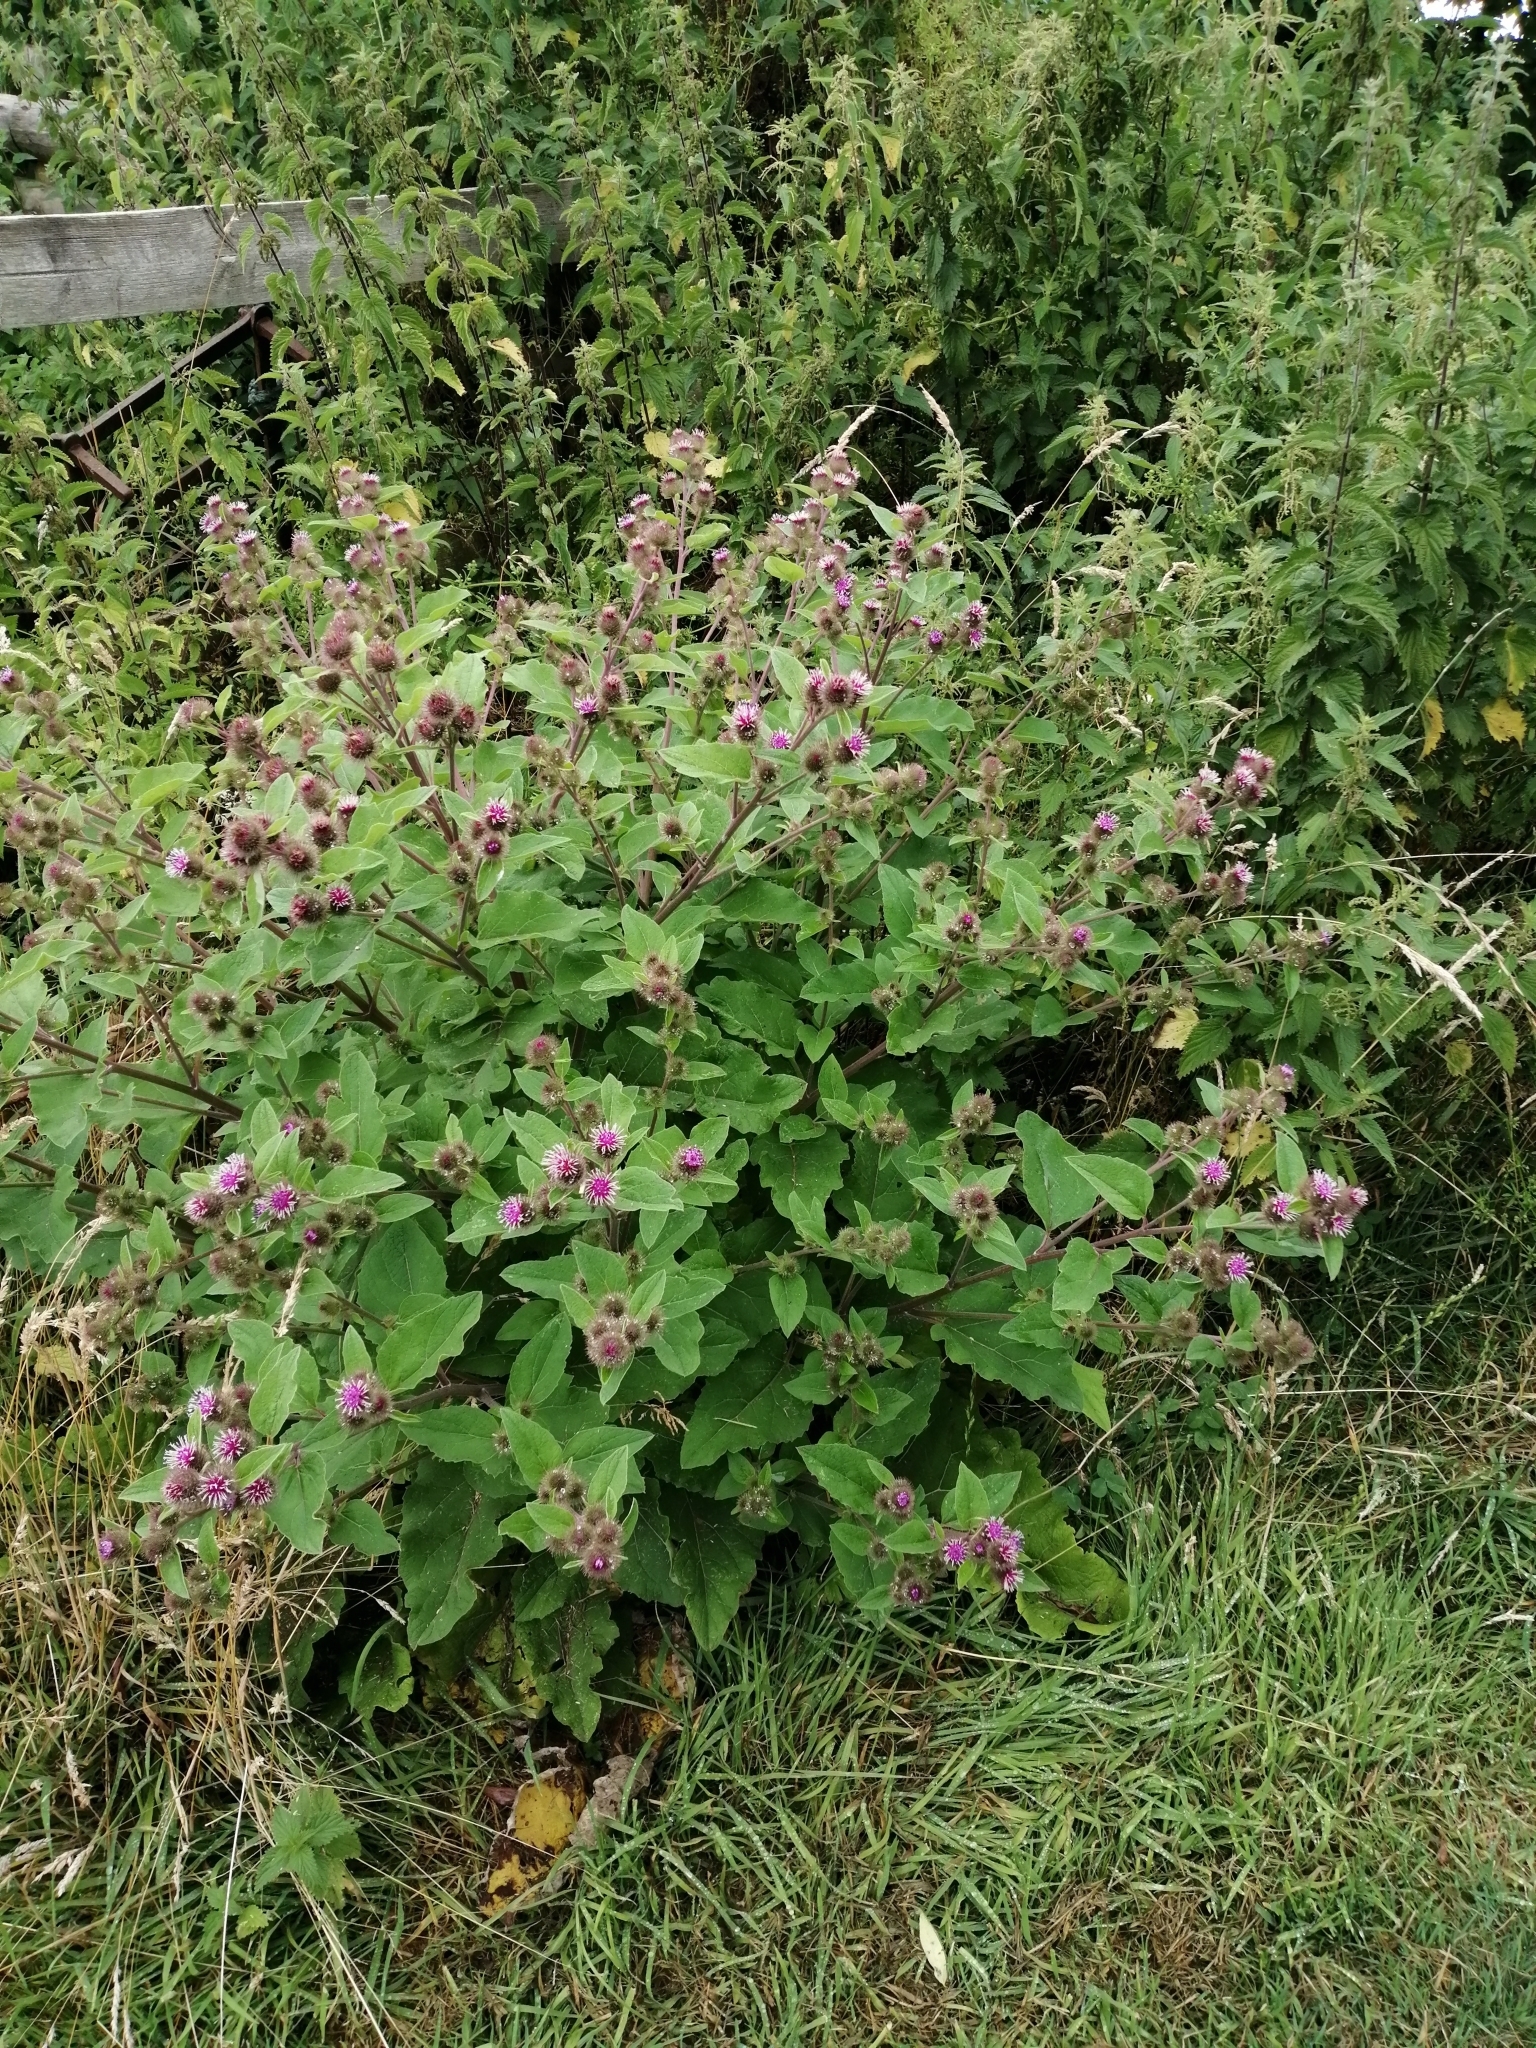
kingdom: Plantae
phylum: Tracheophyta
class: Magnoliopsida
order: Asterales
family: Asteraceae
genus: Arctium
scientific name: Arctium minus
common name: Lesser burdock
